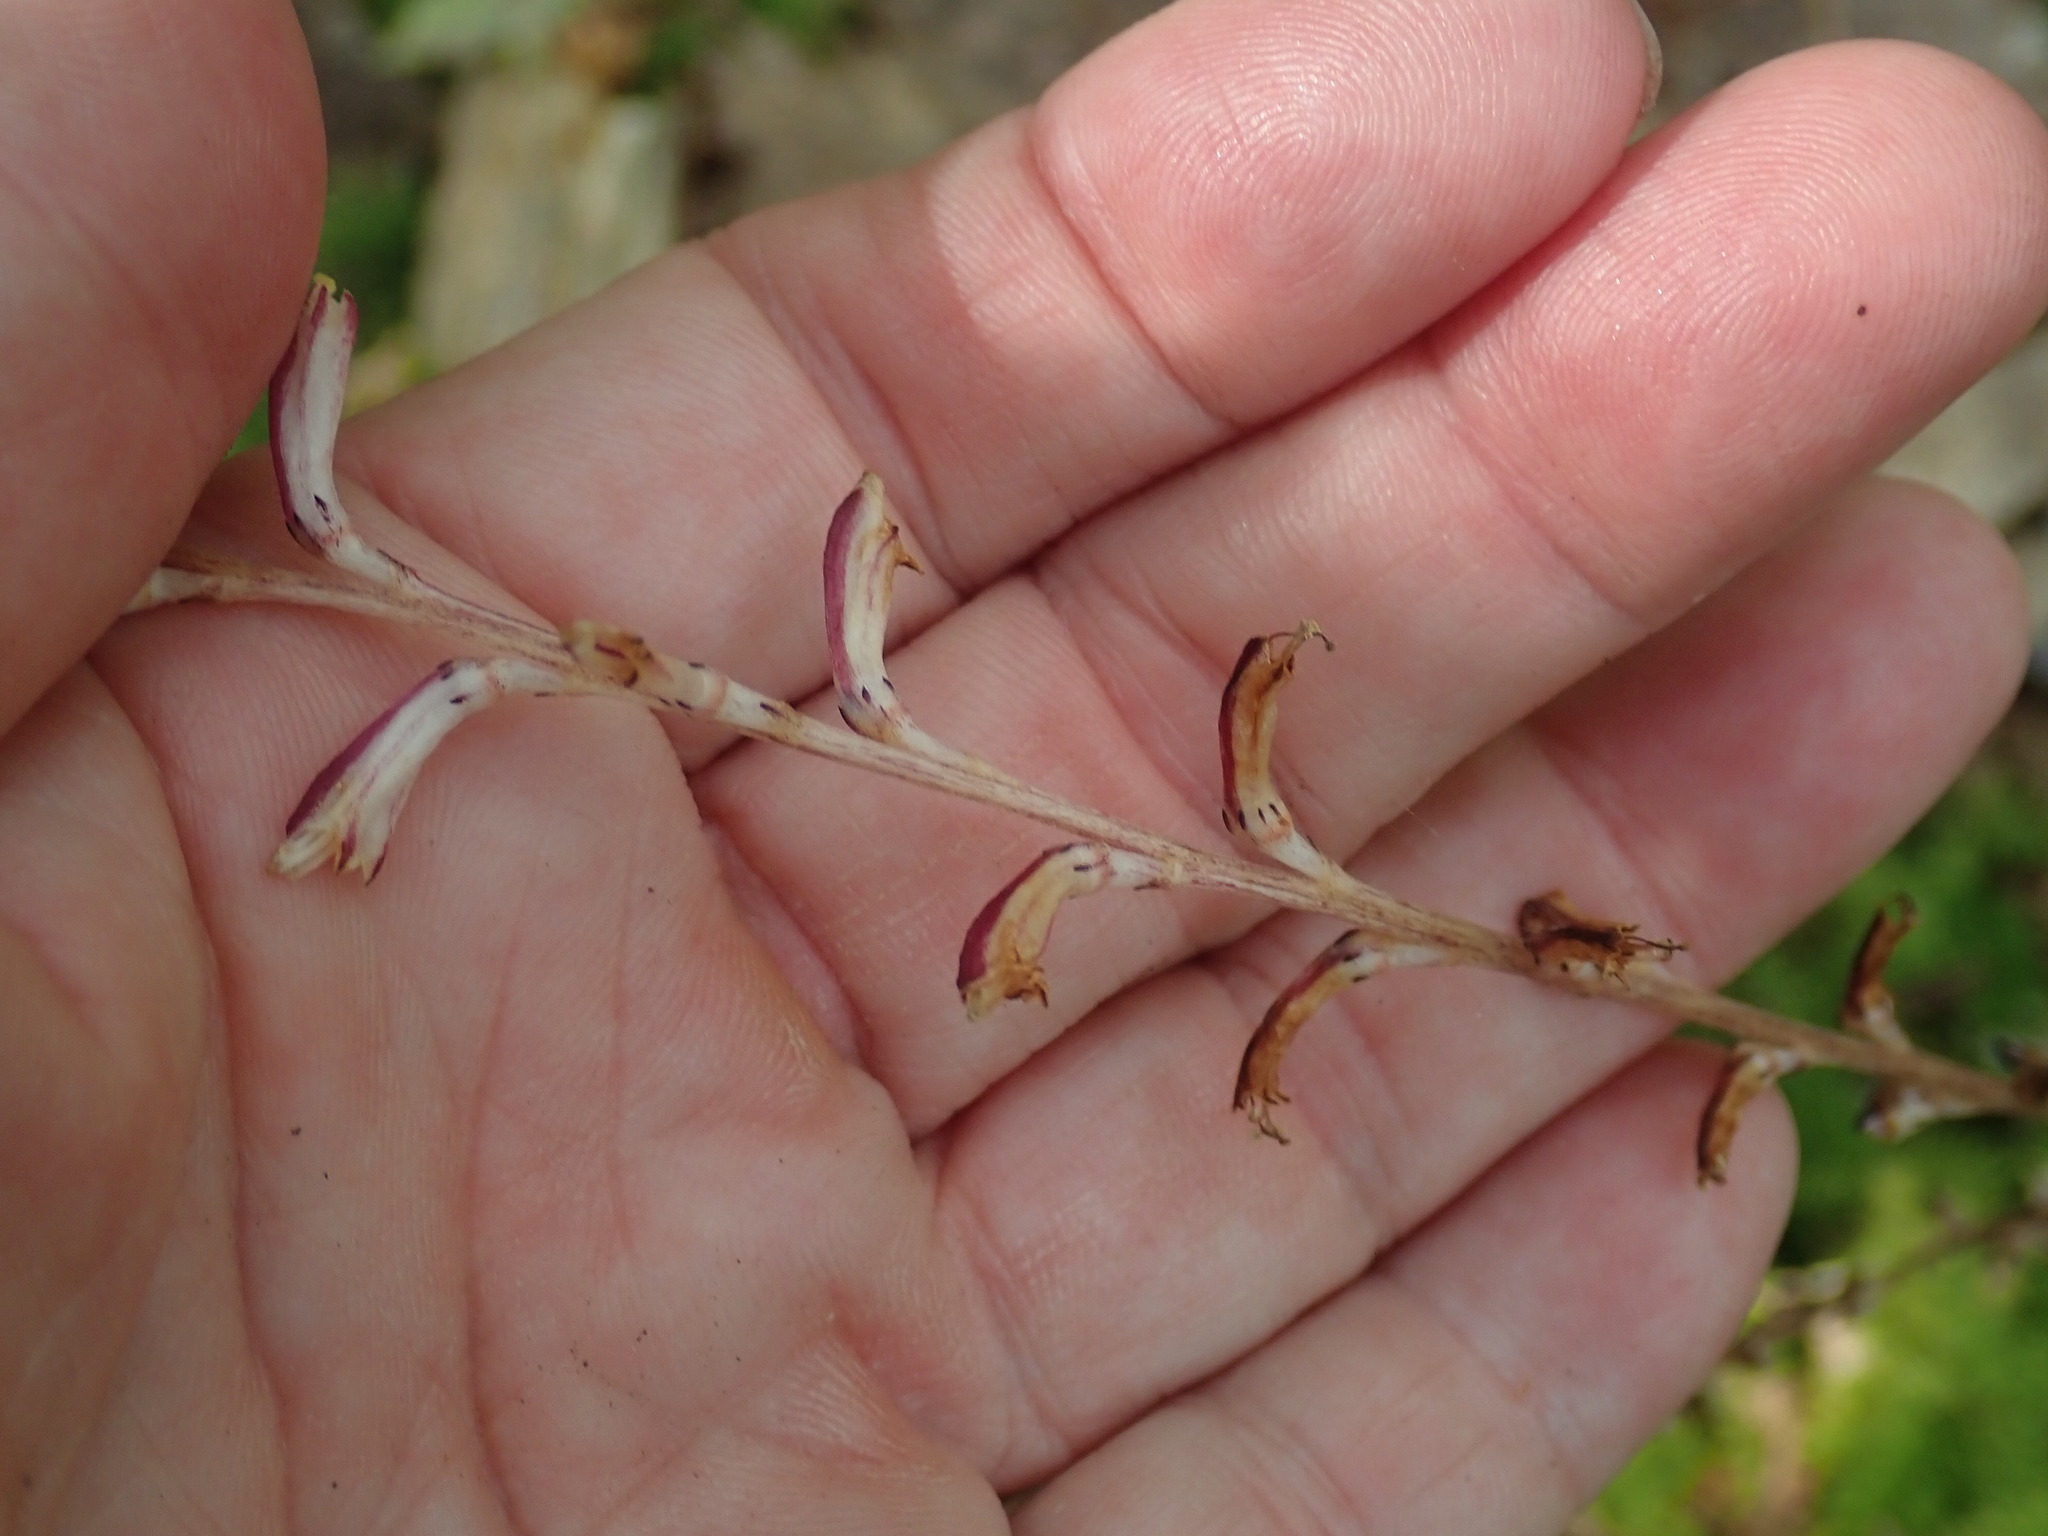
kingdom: Plantae
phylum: Tracheophyta
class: Magnoliopsida
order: Lamiales
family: Orobanchaceae
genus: Epifagus
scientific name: Epifagus virginiana
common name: Beechdrops
